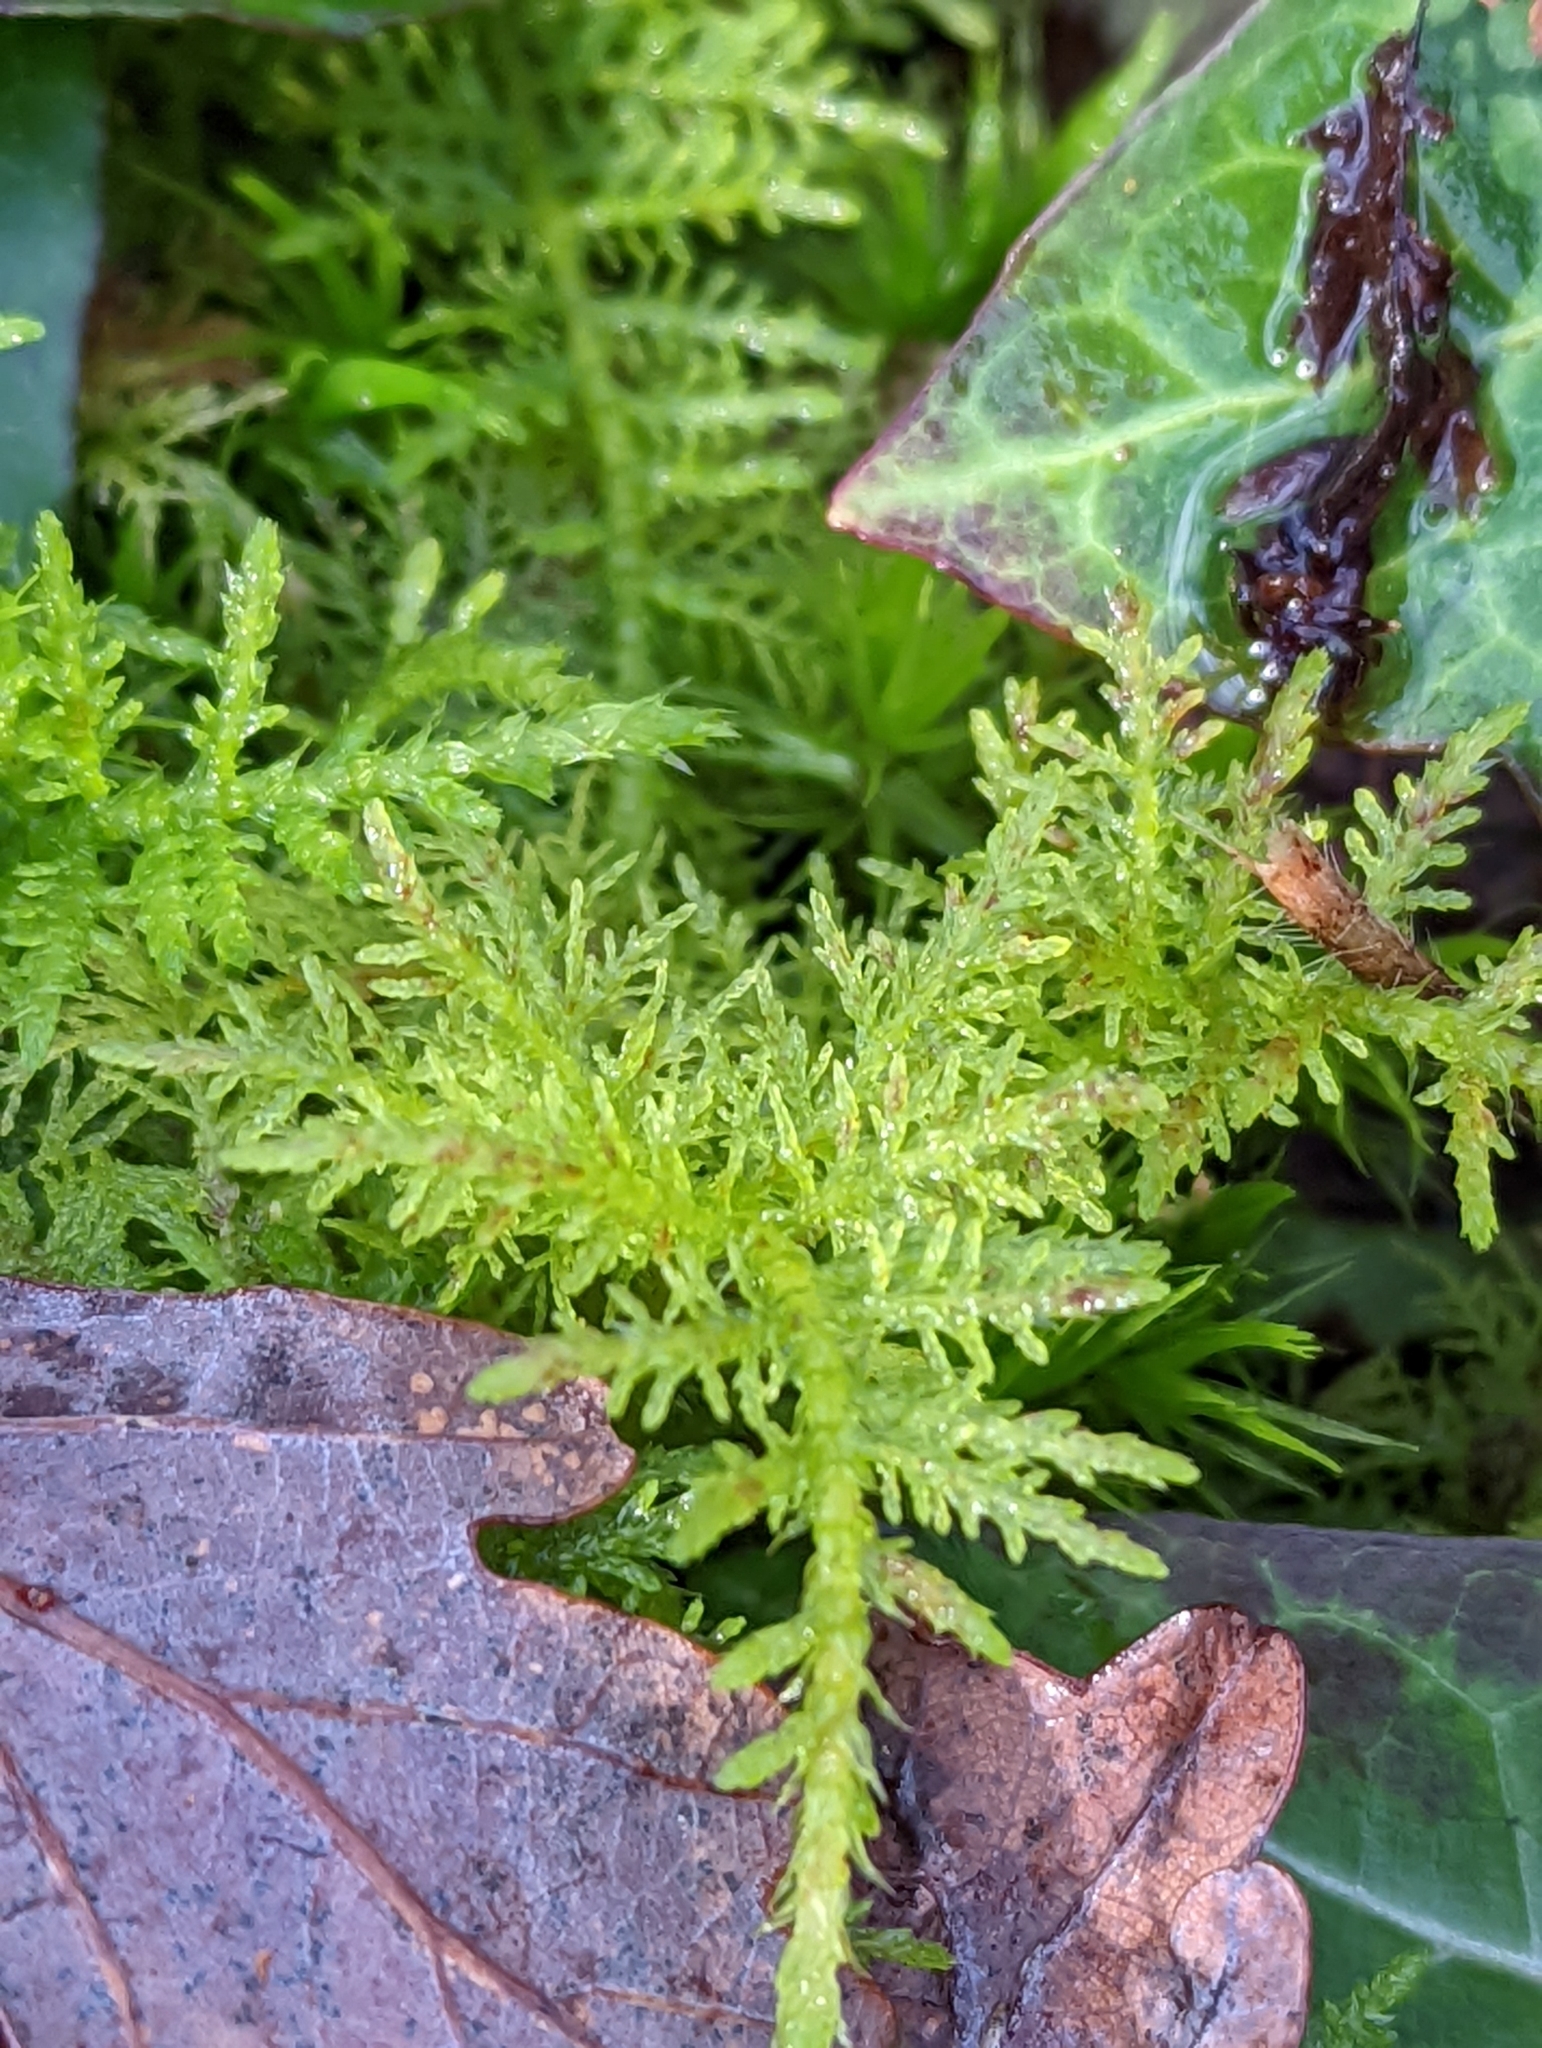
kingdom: Plantae
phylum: Bryophyta
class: Bryopsida
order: Hypnales
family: Thuidiaceae
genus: Thuidium
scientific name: Thuidium tamariscinum
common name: Common tamarisk-moss
